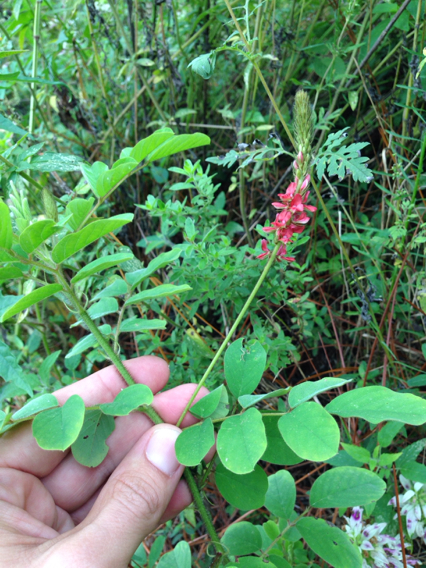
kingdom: Plantae
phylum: Tracheophyta
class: Magnoliopsida
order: Fabales
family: Fabaceae
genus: Indigofera
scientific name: Indigofera hirsuta
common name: Hairy indigo
